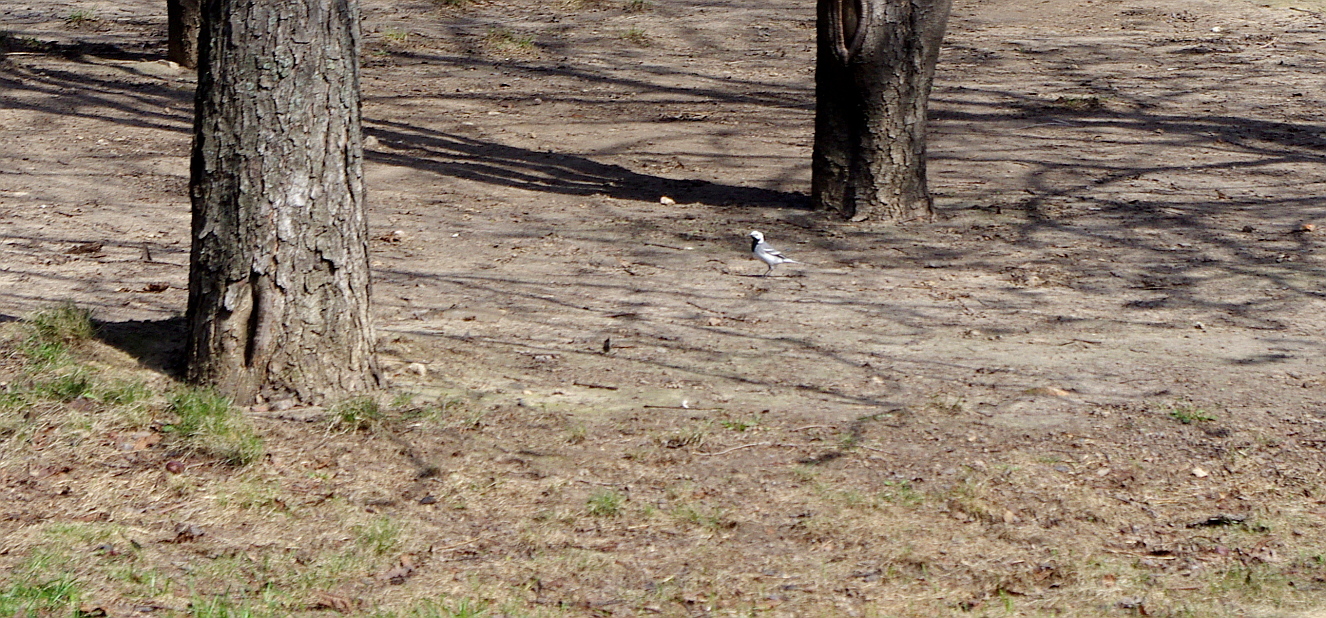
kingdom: Animalia
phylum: Chordata
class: Aves
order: Passeriformes
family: Motacillidae
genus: Motacilla
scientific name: Motacilla alba
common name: White wagtail
